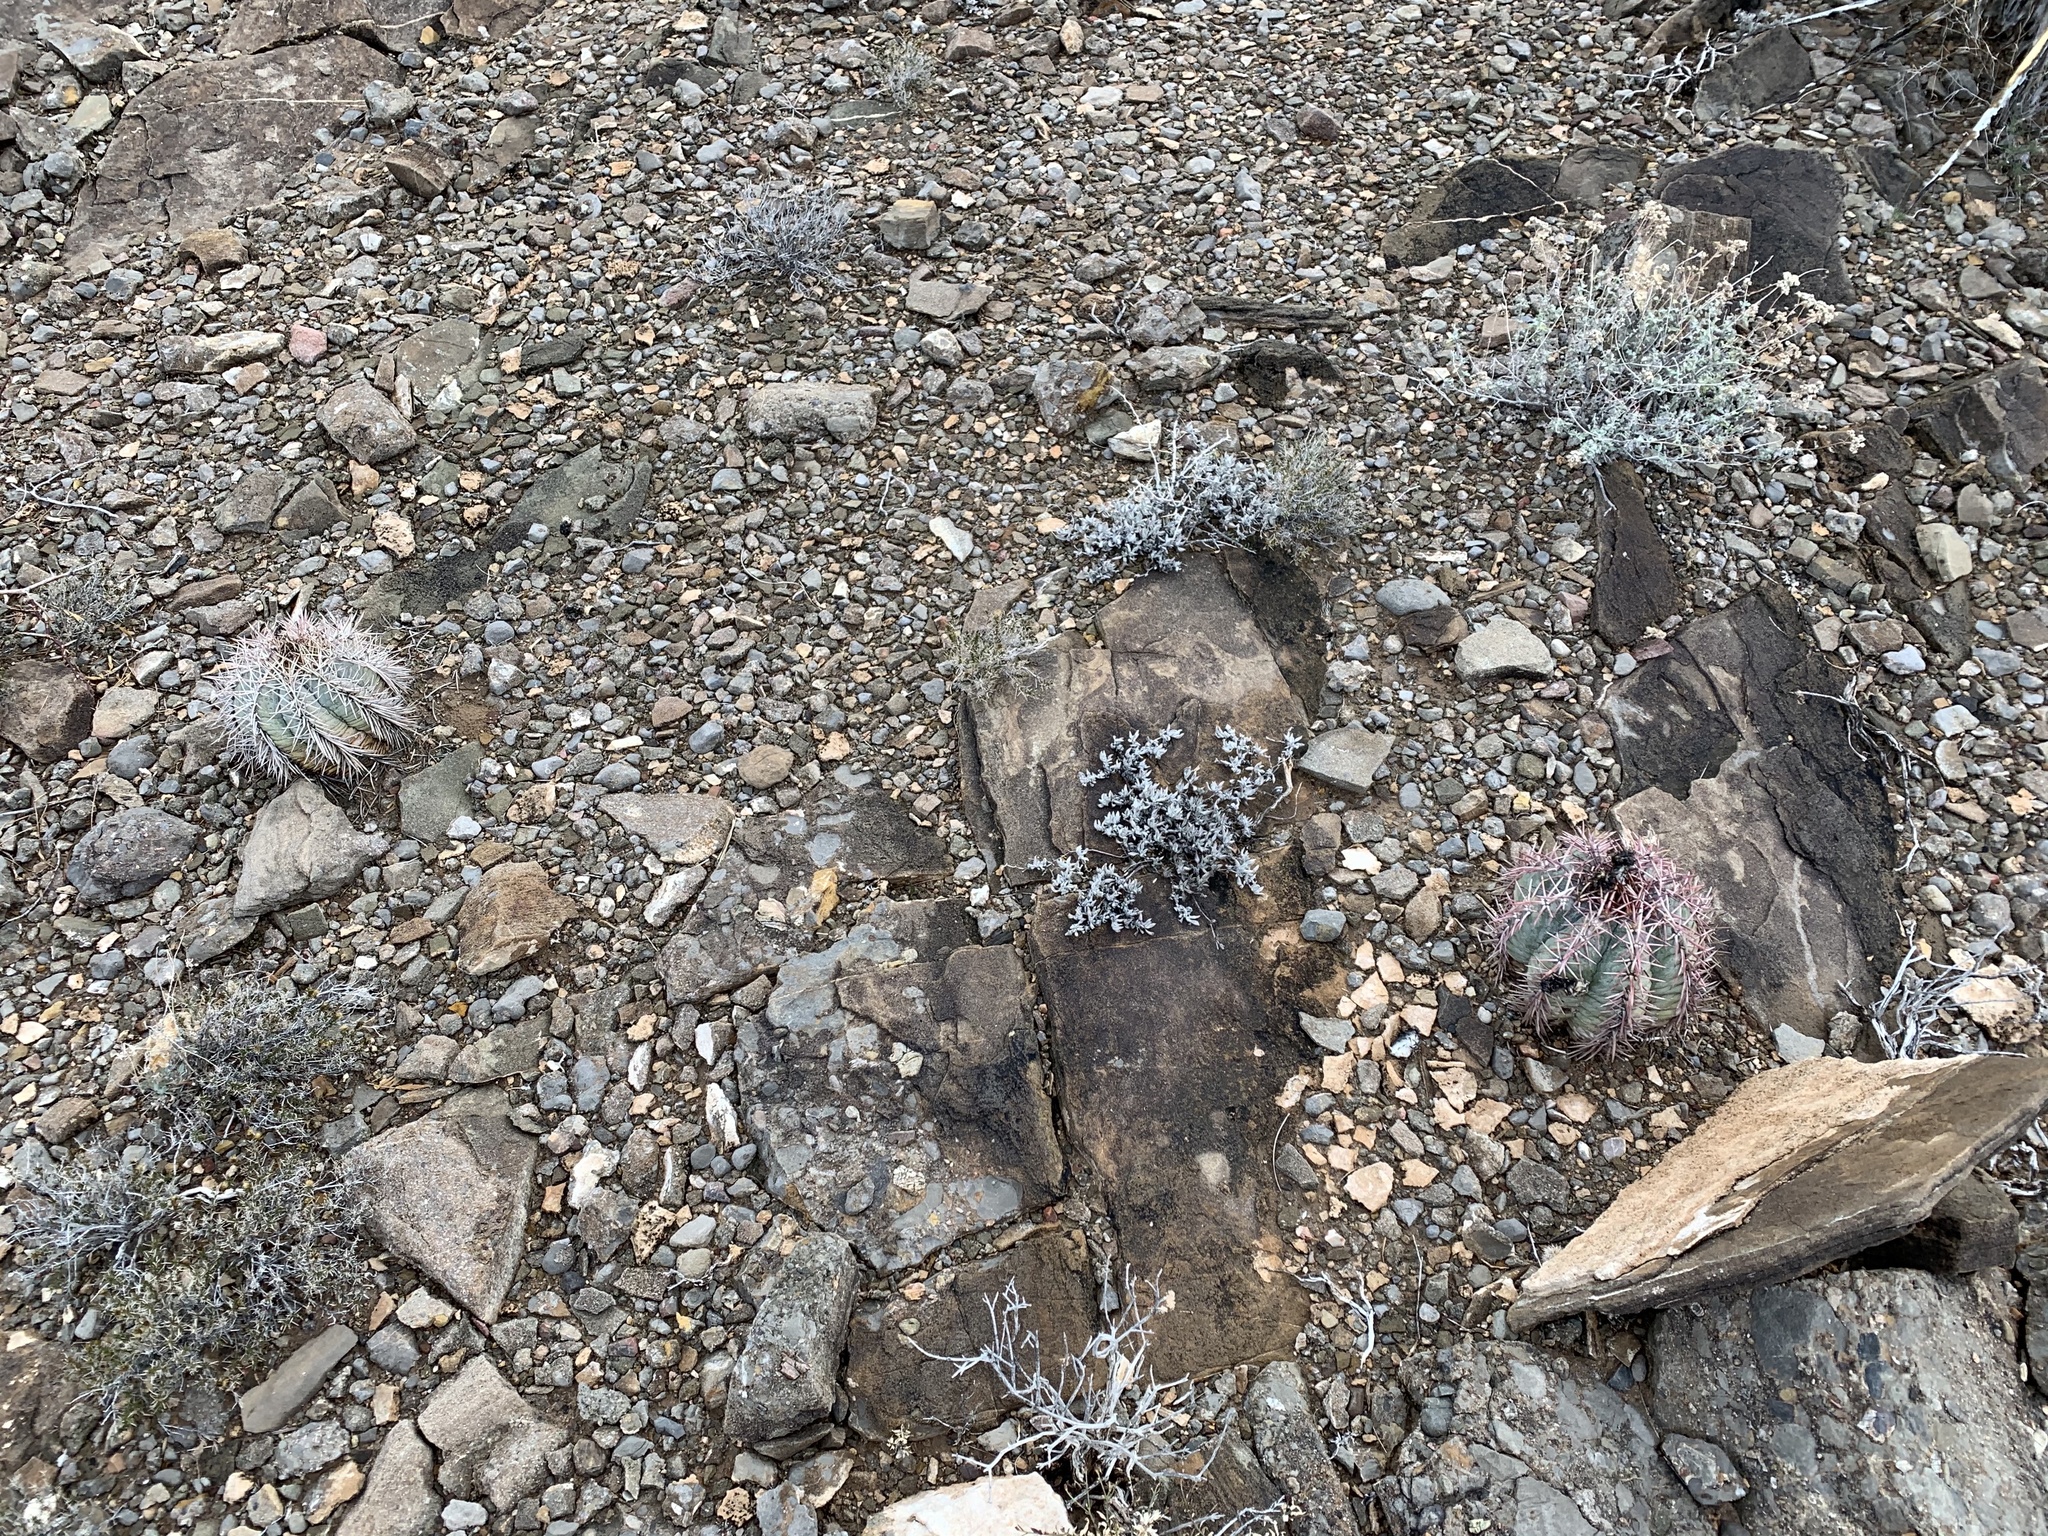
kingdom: Plantae
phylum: Tracheophyta
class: Magnoliopsida
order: Caryophyllales
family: Cactaceae
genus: Echinocactus
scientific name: Echinocactus horizonthalonius
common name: Devilshead
